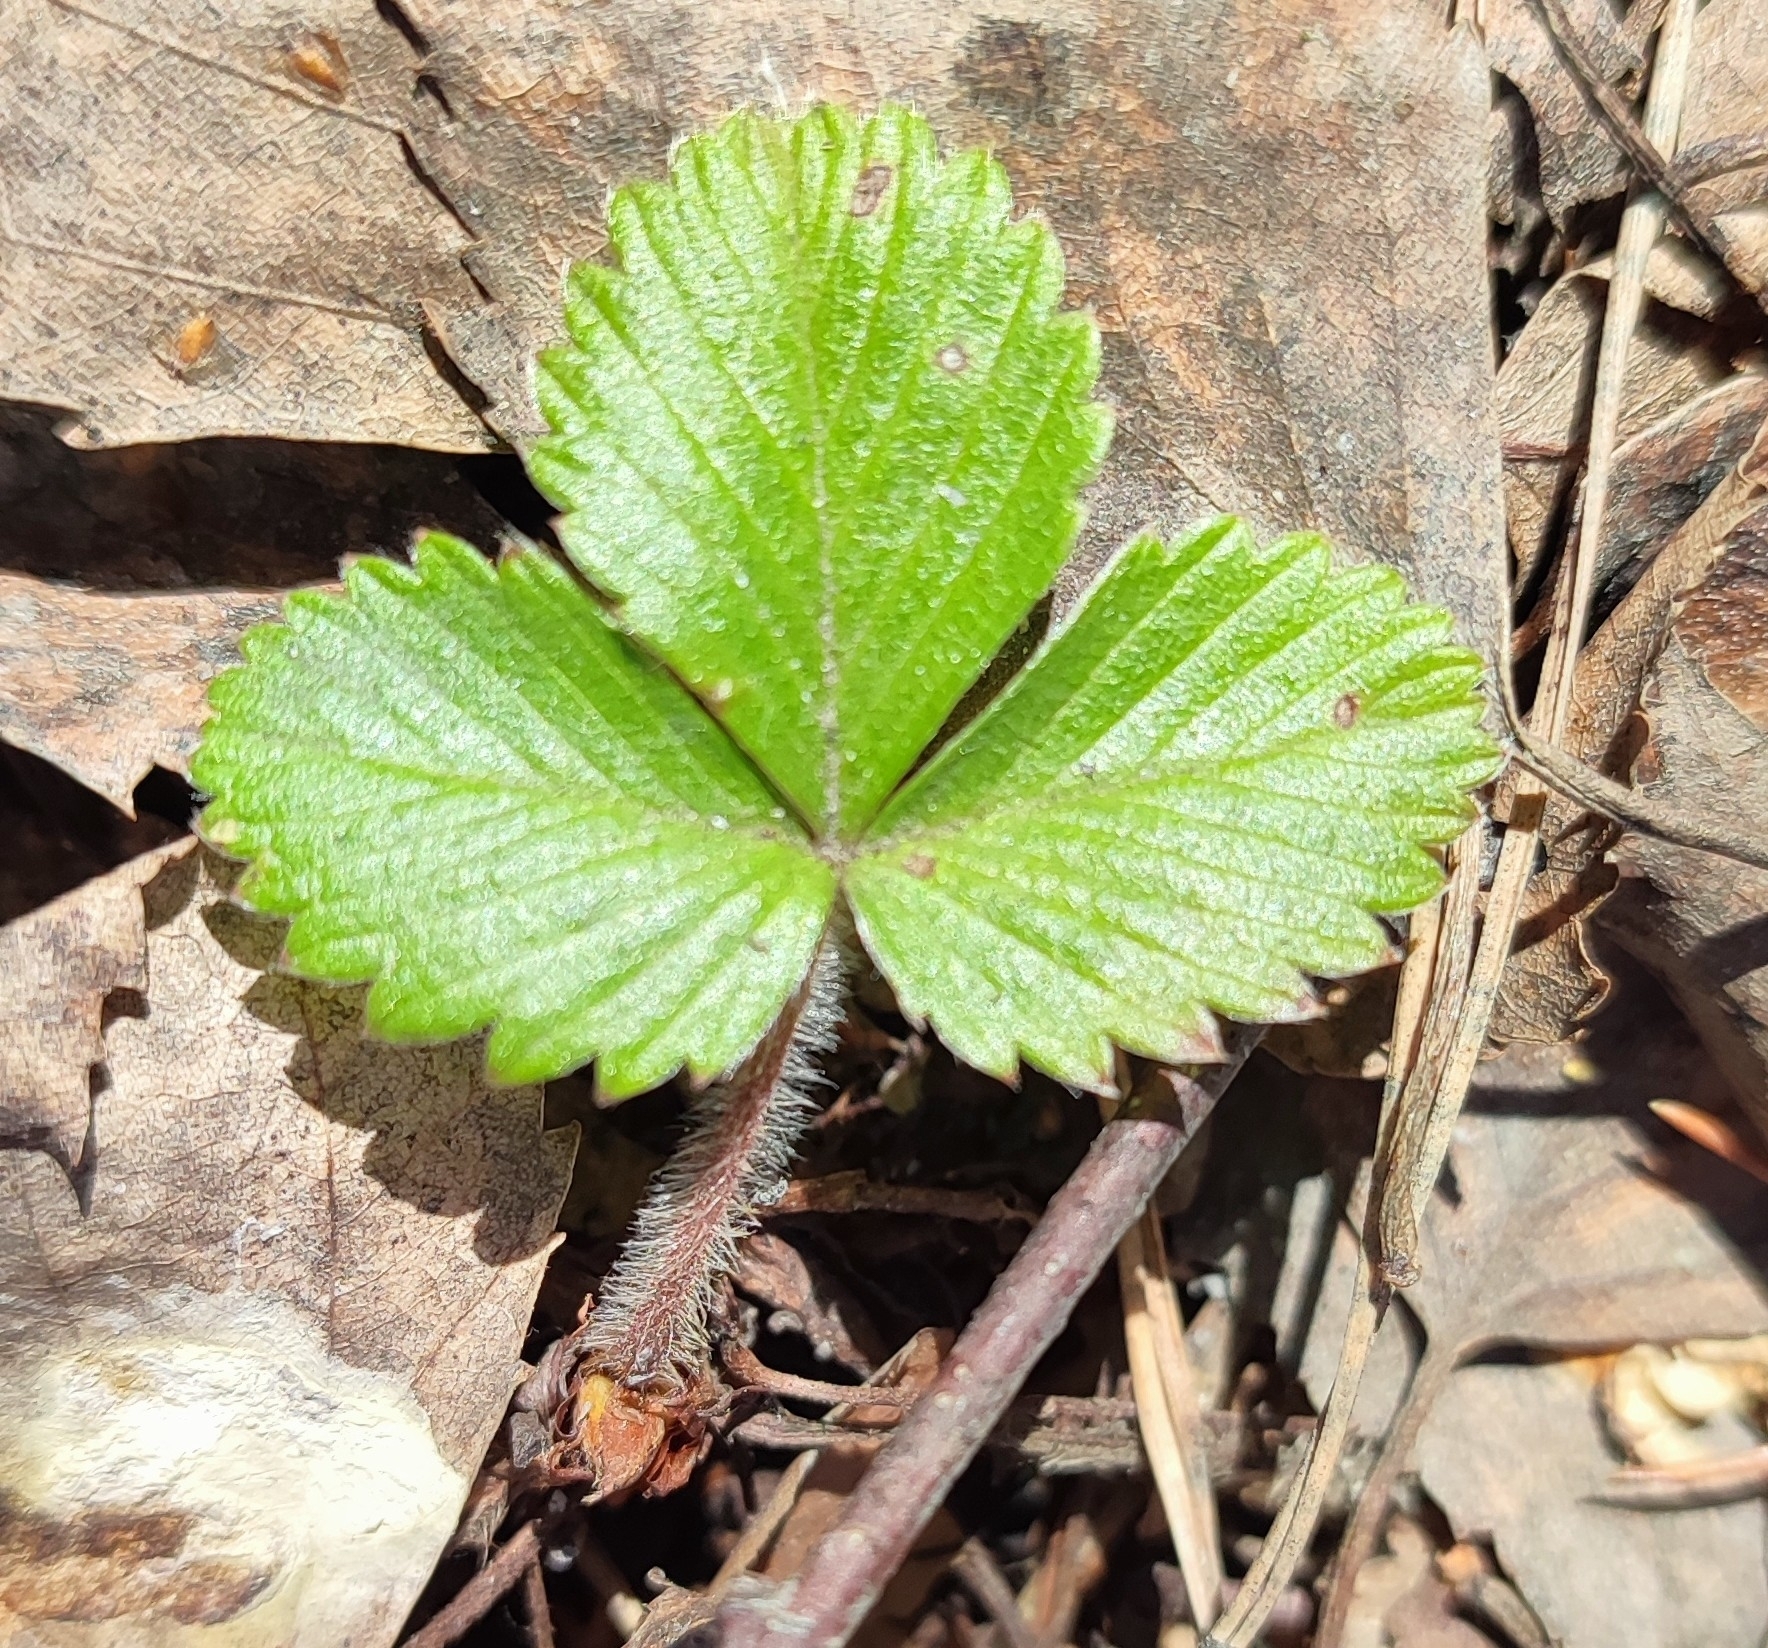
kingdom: Plantae
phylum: Tracheophyta
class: Magnoliopsida
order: Rosales
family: Rosaceae
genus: Fragaria
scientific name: Fragaria vesca
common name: Wild strawberry
